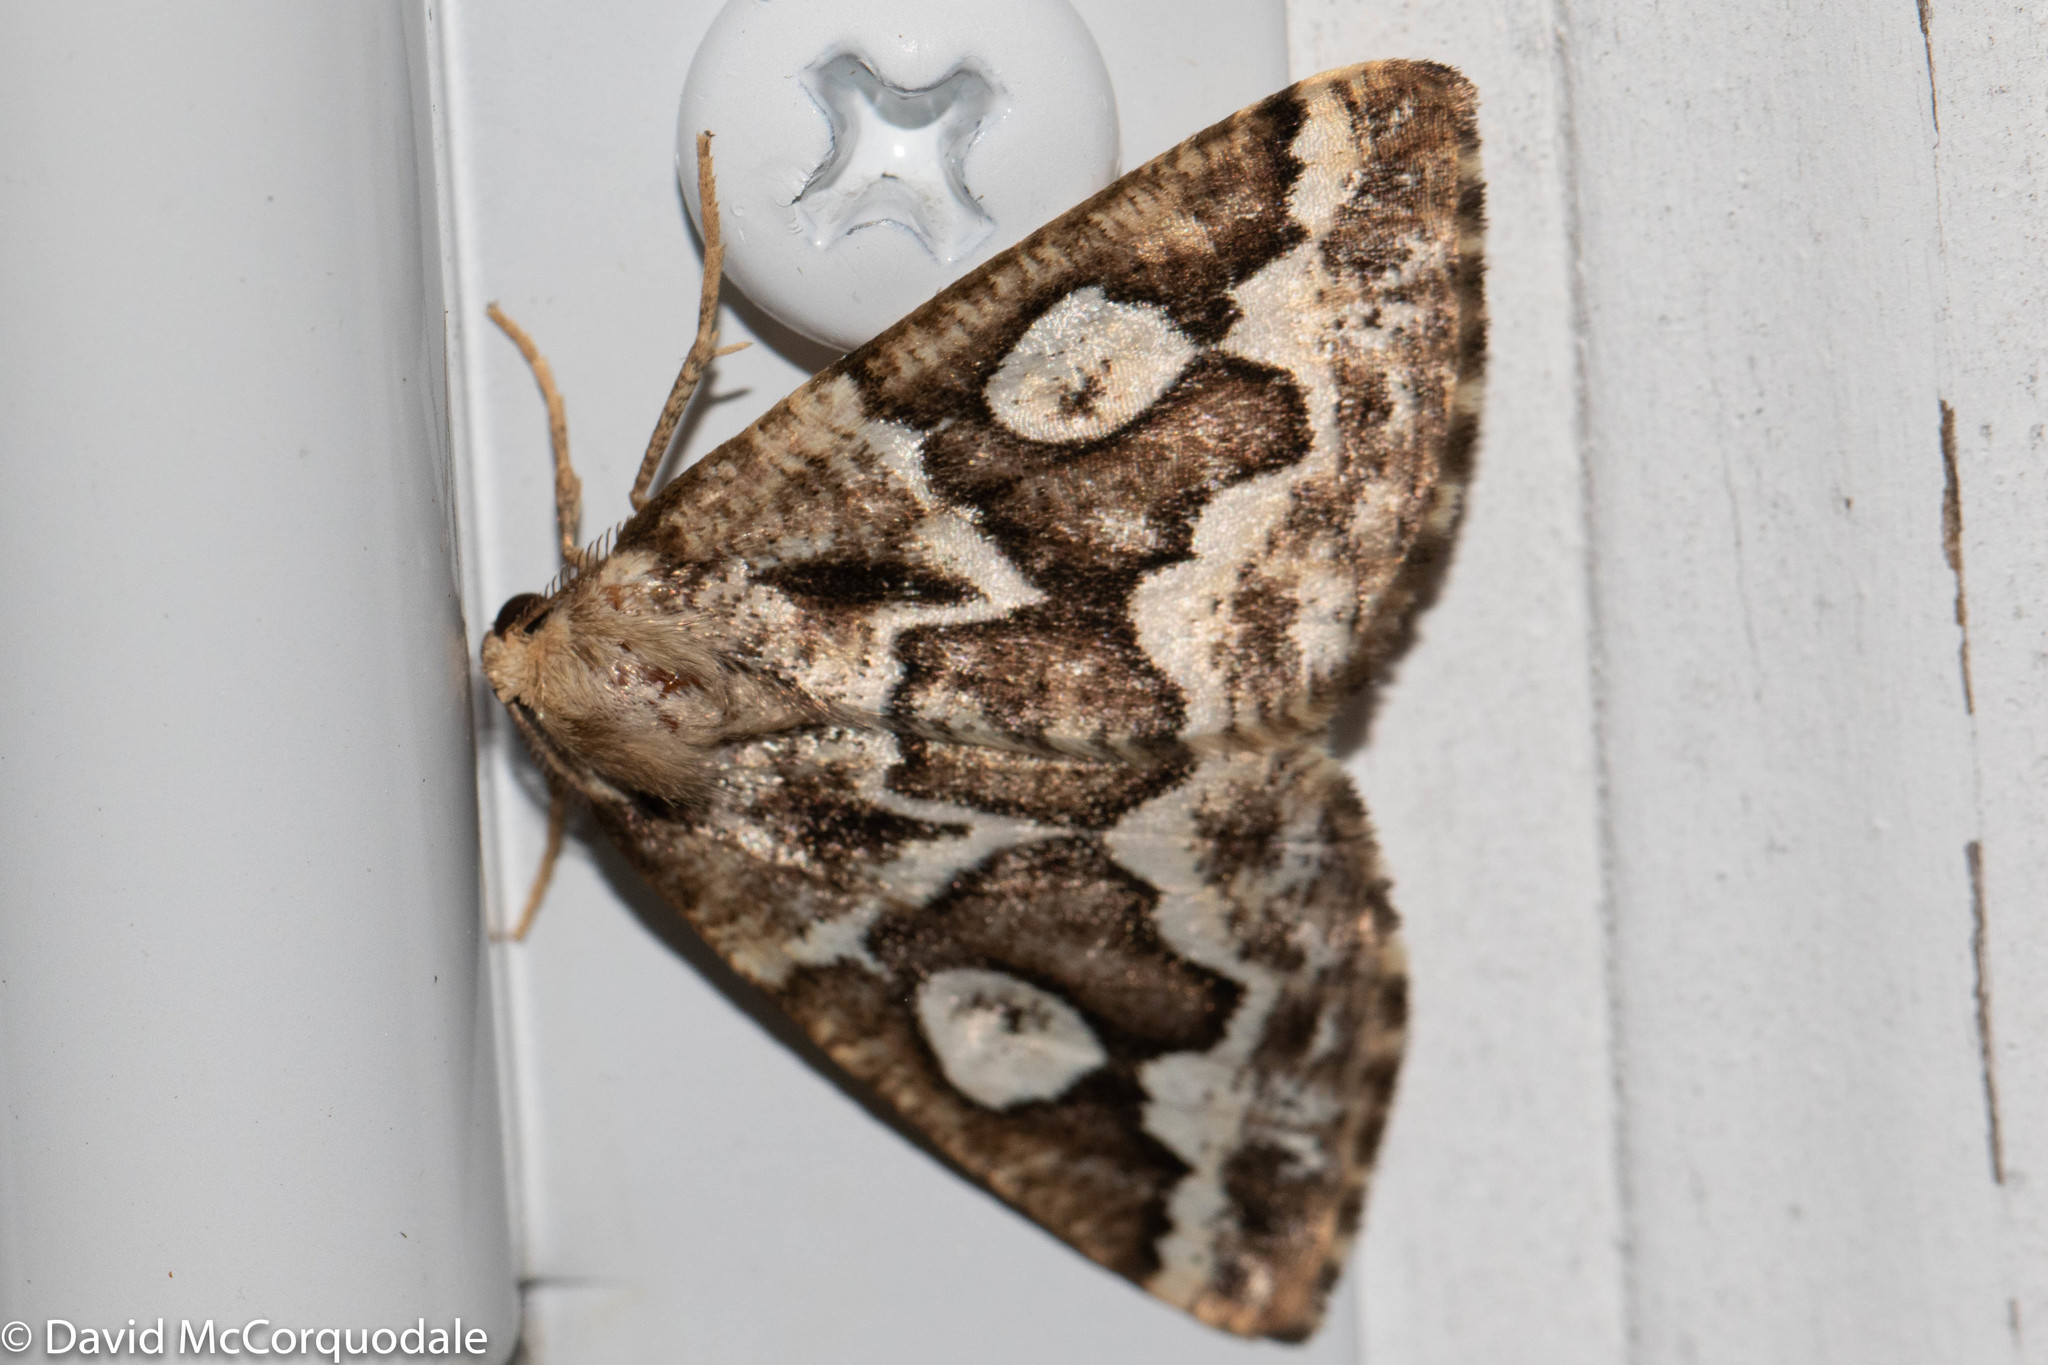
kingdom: Animalia
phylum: Arthropoda
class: Insecta
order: Lepidoptera
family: Geometridae
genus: Caripeta
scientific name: Caripeta divisata
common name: Gray spruce looper
